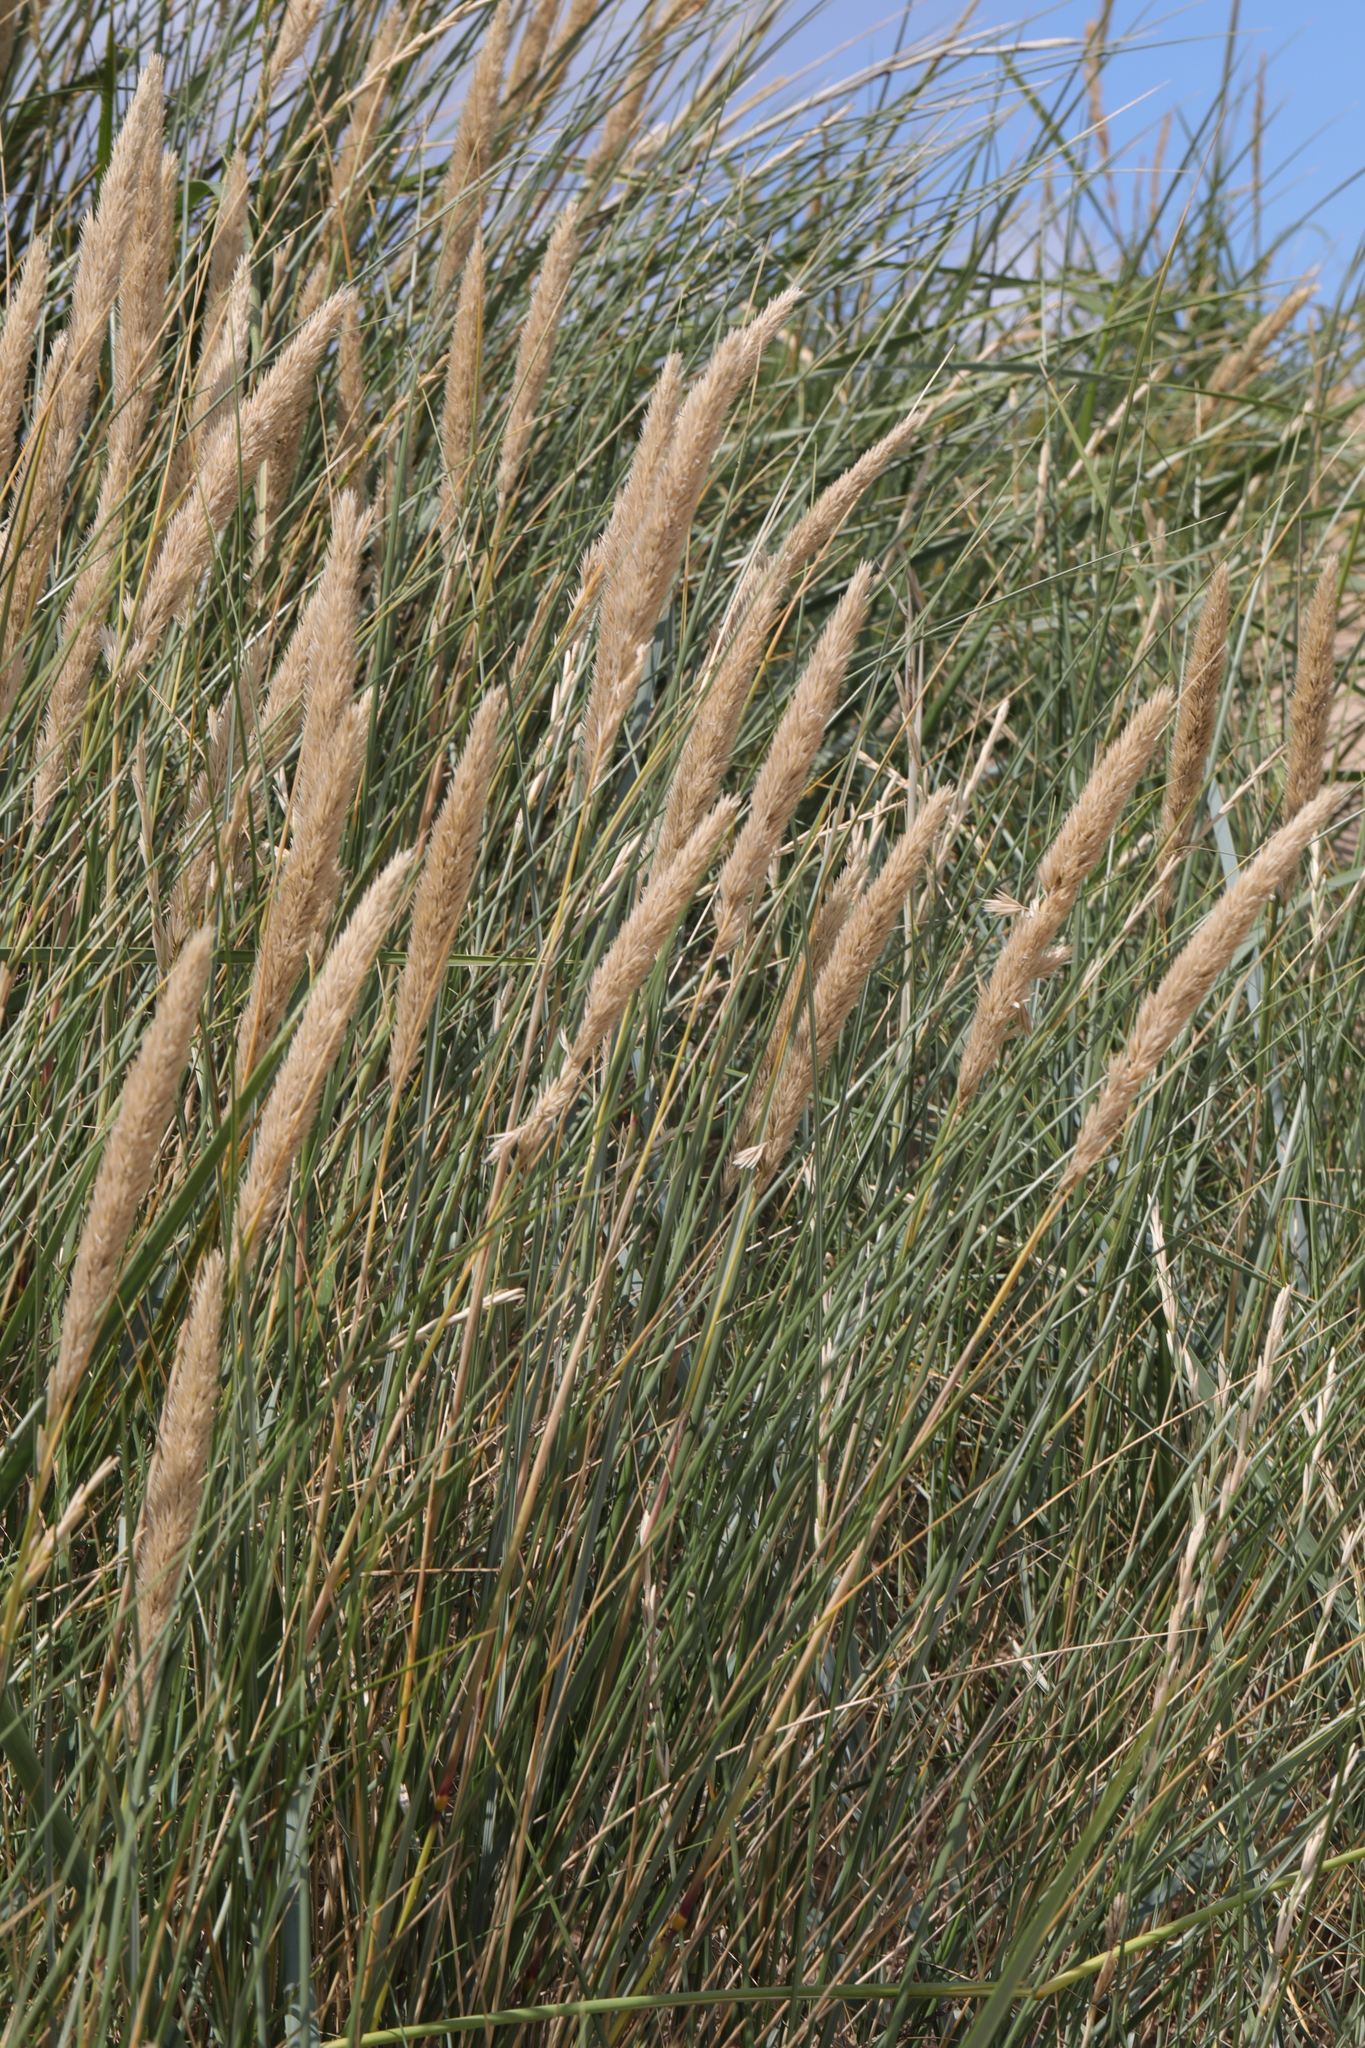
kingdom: Plantae
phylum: Tracheophyta
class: Liliopsida
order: Poales
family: Poaceae
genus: Calamagrostis
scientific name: Calamagrostis arenaria
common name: European beachgrass
